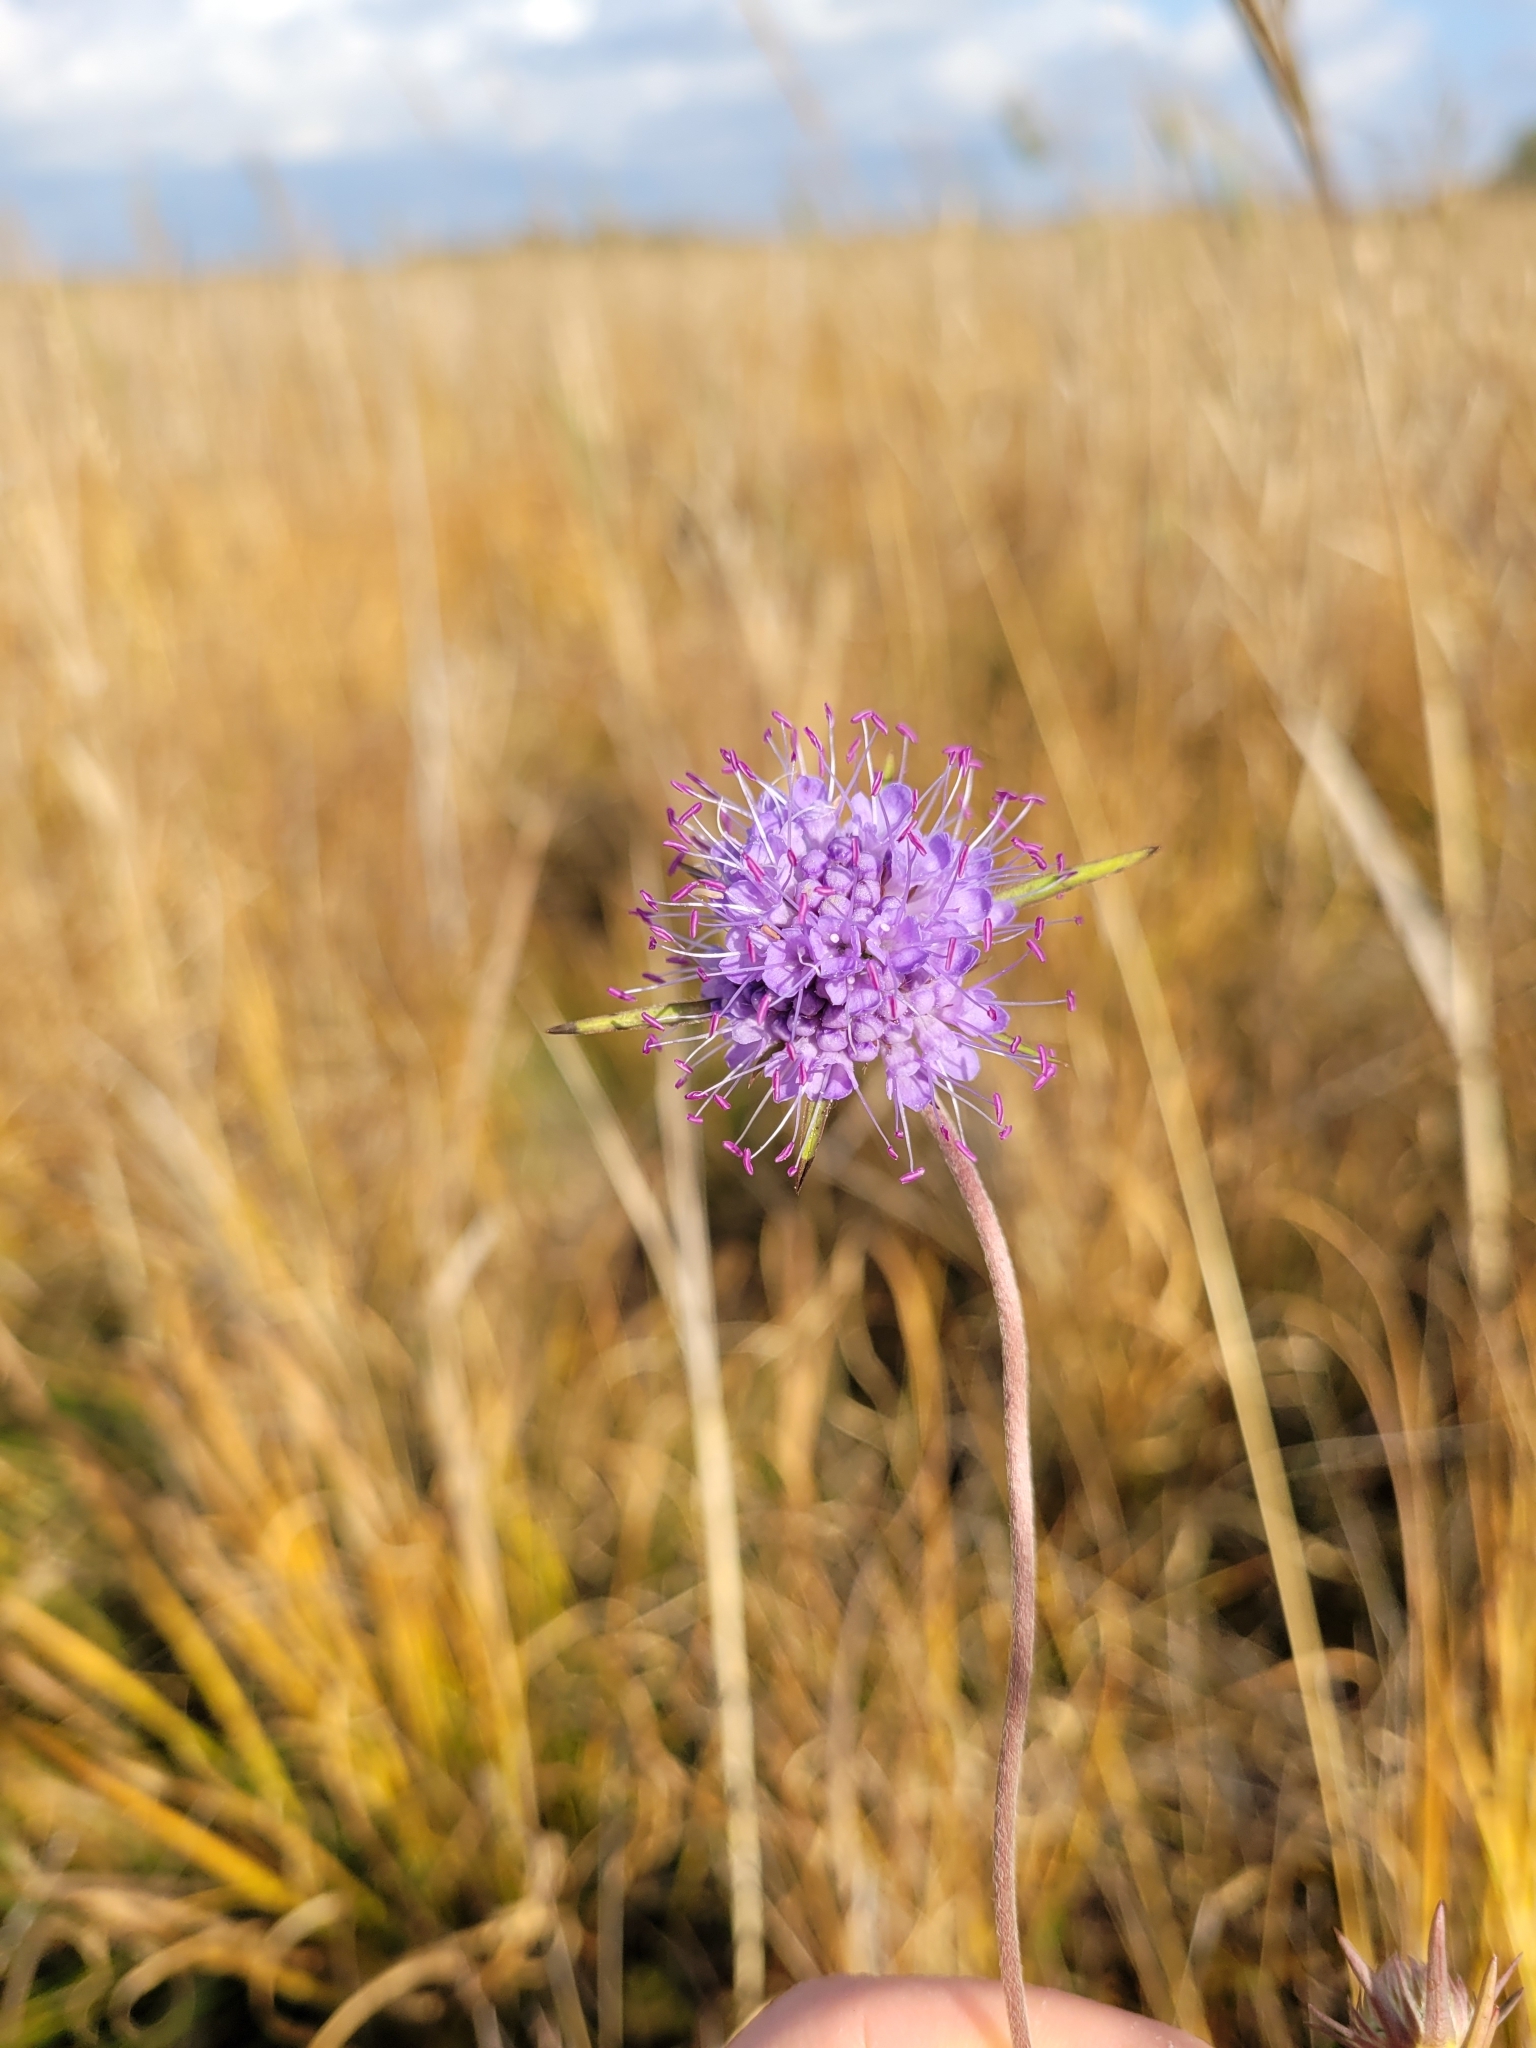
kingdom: Plantae
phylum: Tracheophyta
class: Magnoliopsida
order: Dipsacales
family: Caprifoliaceae
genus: Succisa
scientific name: Succisa pratensis
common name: Devil's-bit
